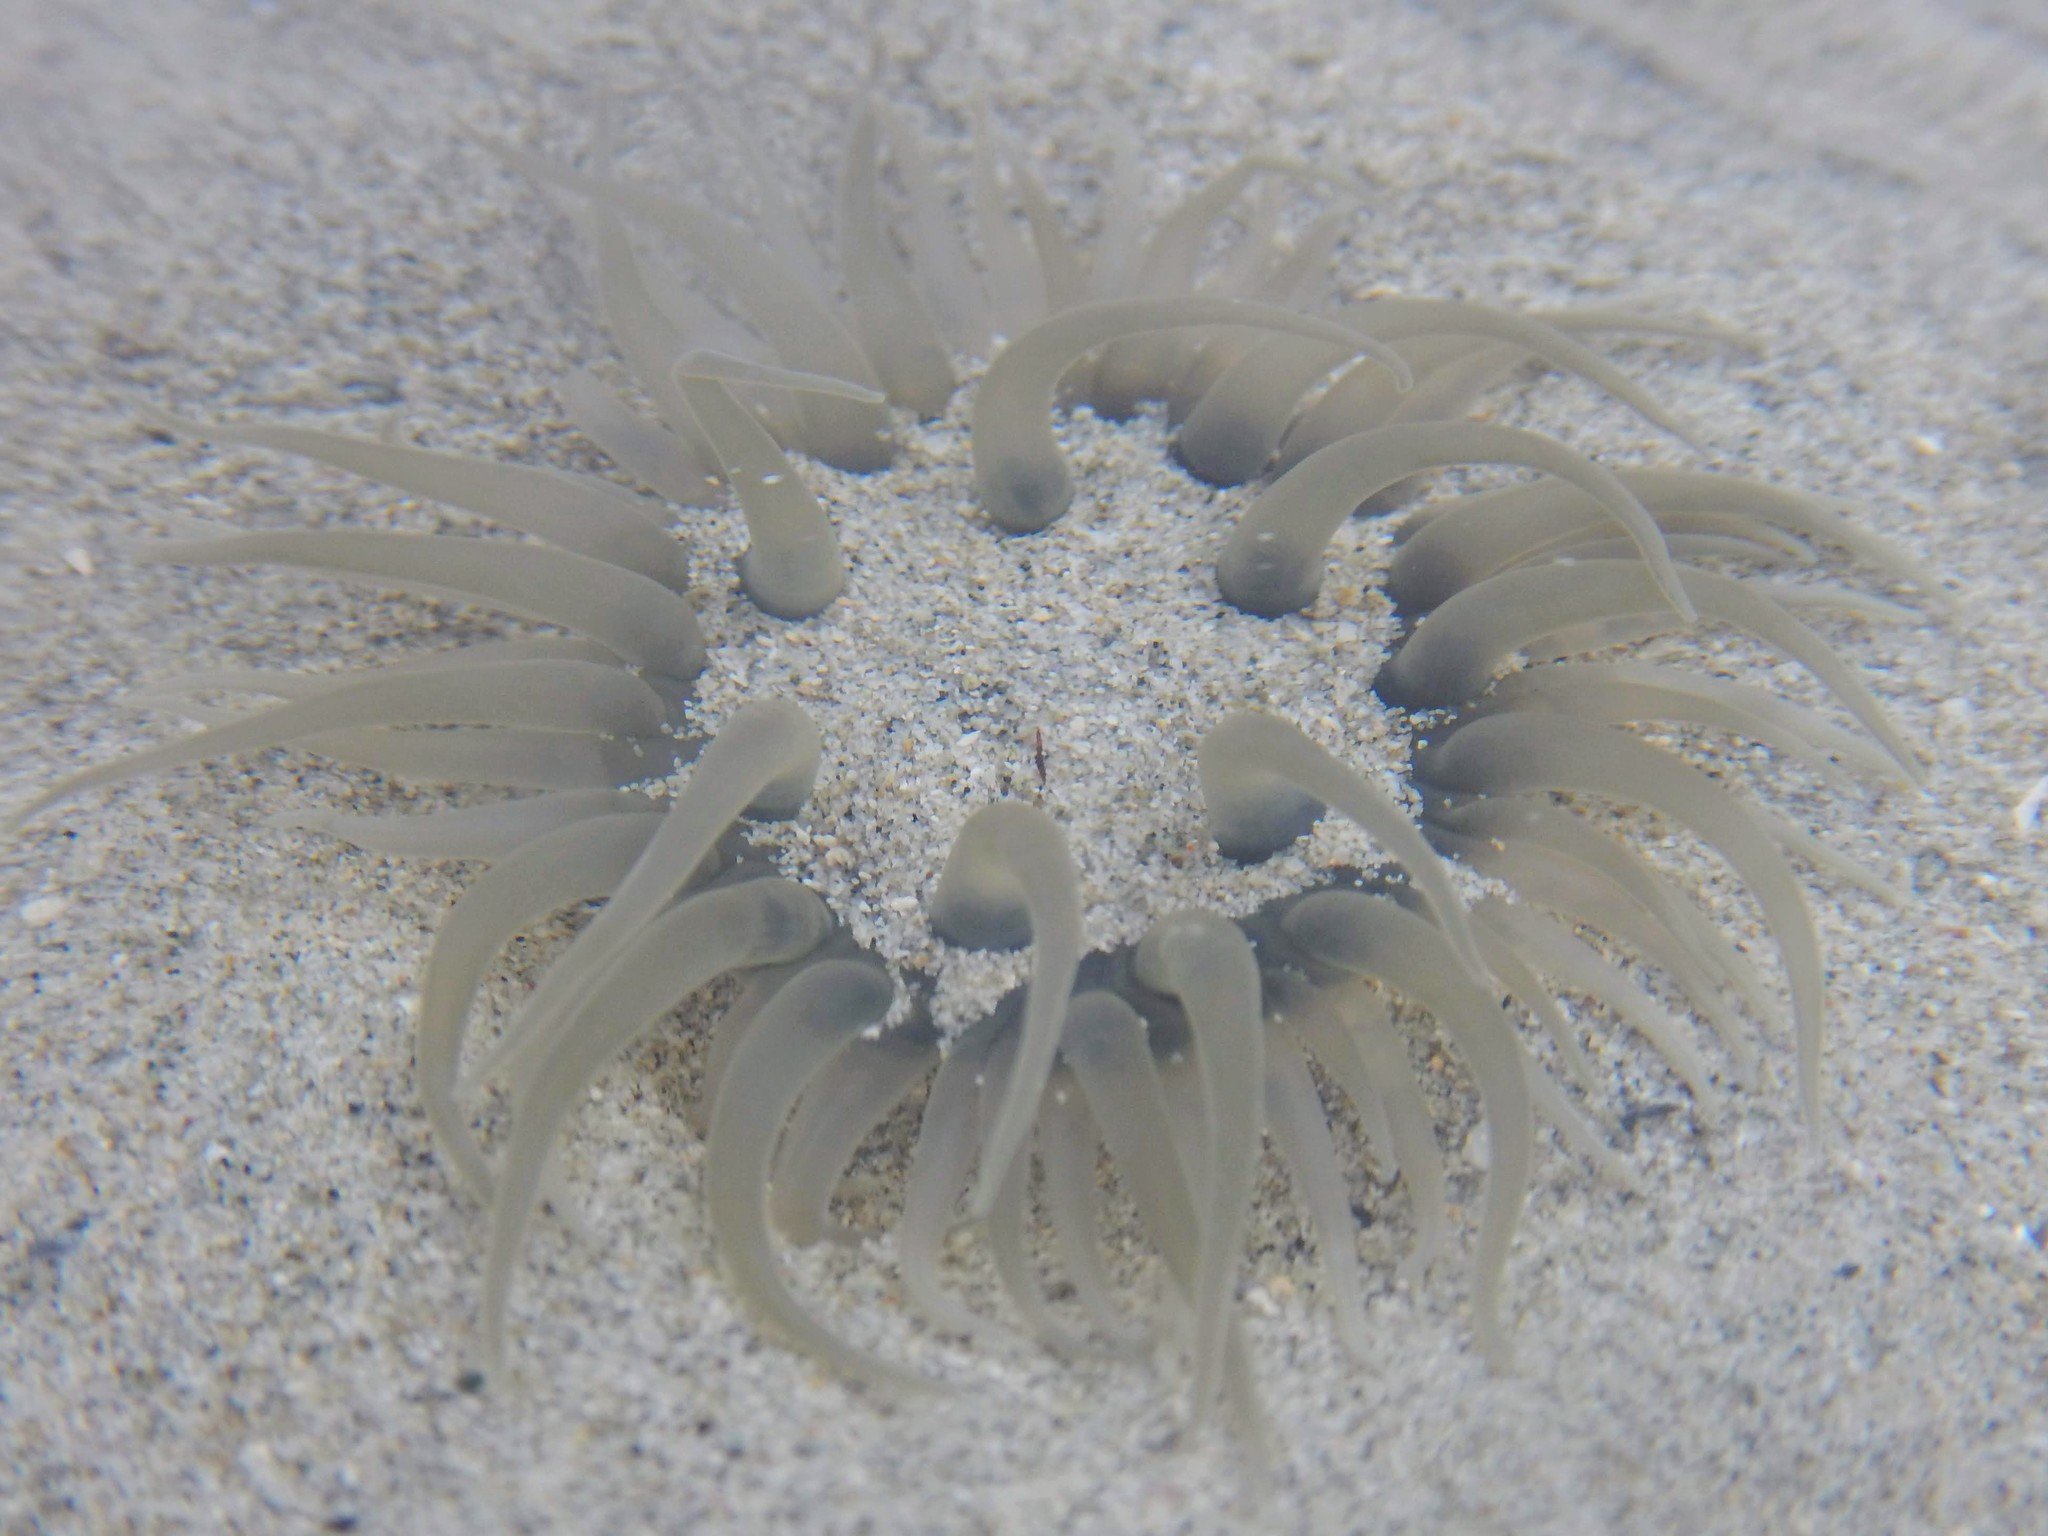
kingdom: Animalia
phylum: Cnidaria
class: Anthozoa
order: Actiniaria
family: Actiniidae
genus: Paracondylactis
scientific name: Paracondylactis sinensis
